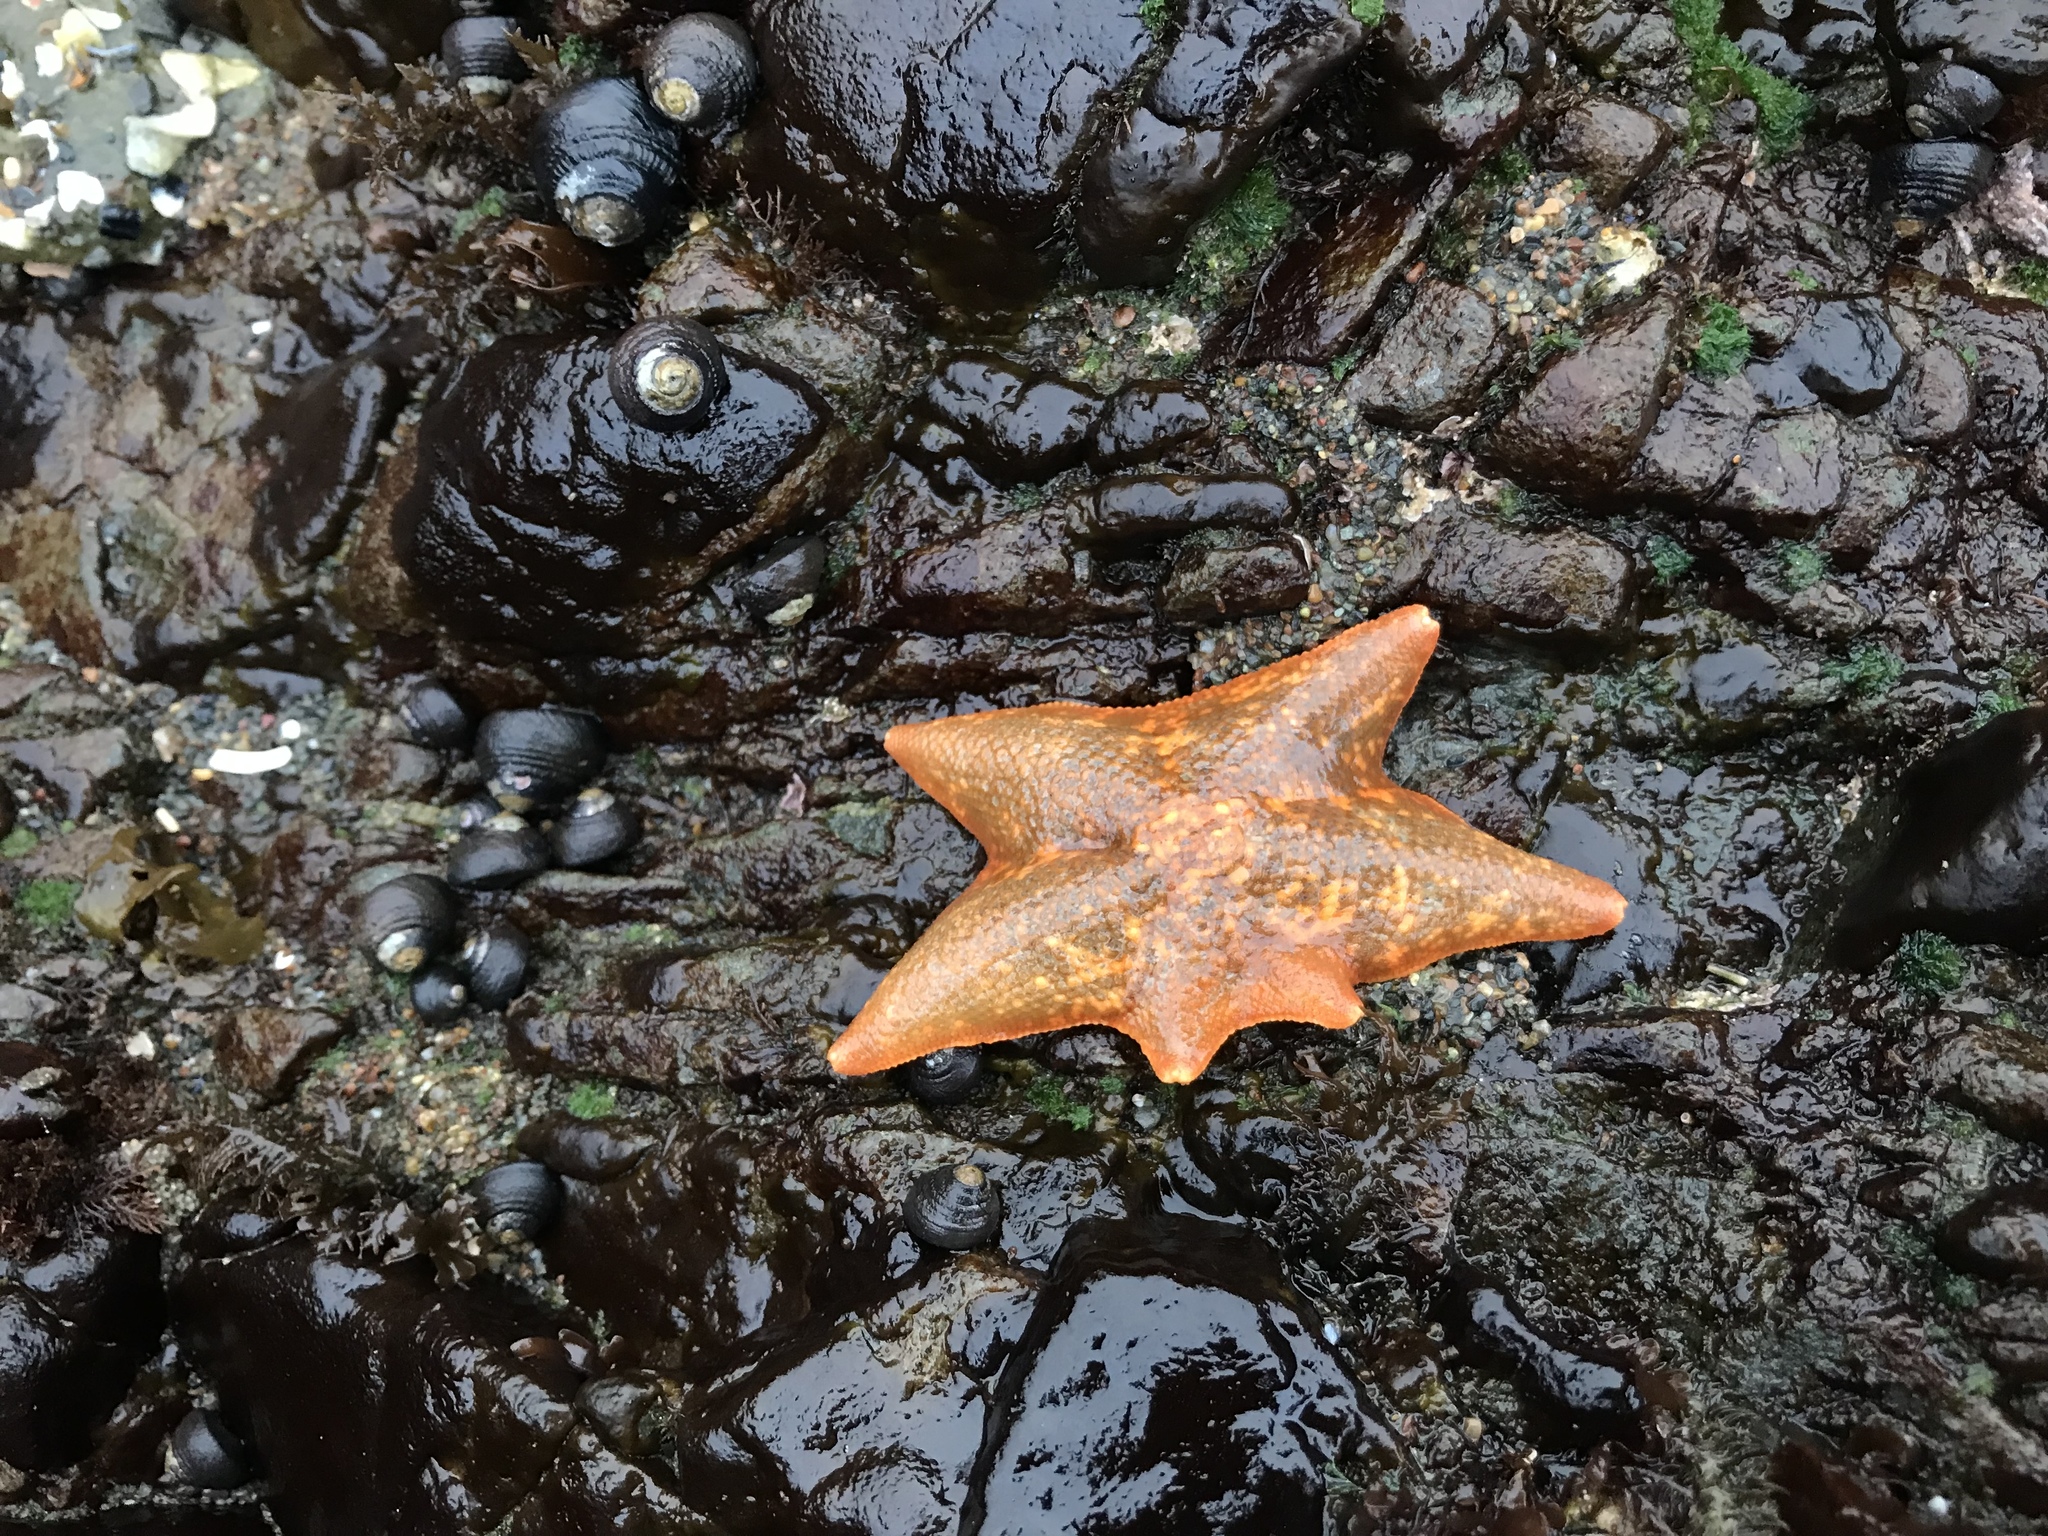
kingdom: Animalia
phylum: Echinodermata
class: Asteroidea
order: Valvatida
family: Asterinidae
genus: Patiria
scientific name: Patiria miniata
